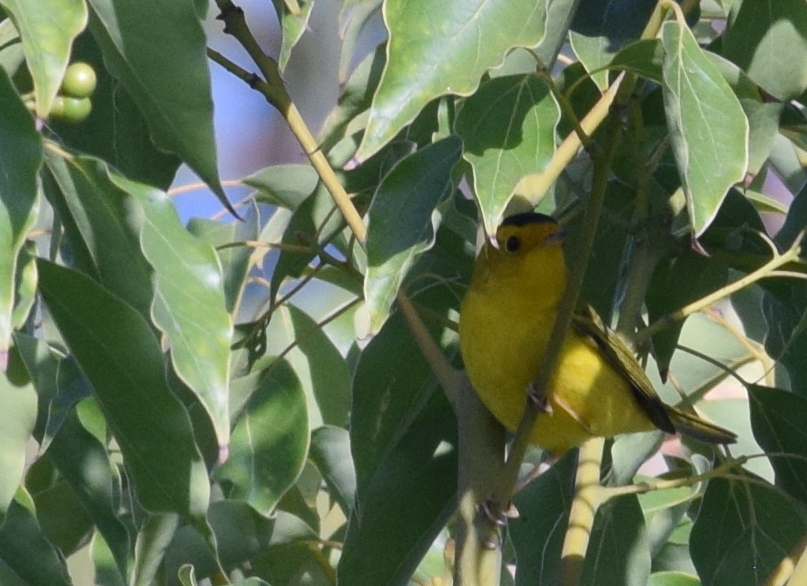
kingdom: Animalia
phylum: Chordata
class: Aves
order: Passeriformes
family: Parulidae
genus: Cardellina
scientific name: Cardellina pusilla
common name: Wilson's warbler
